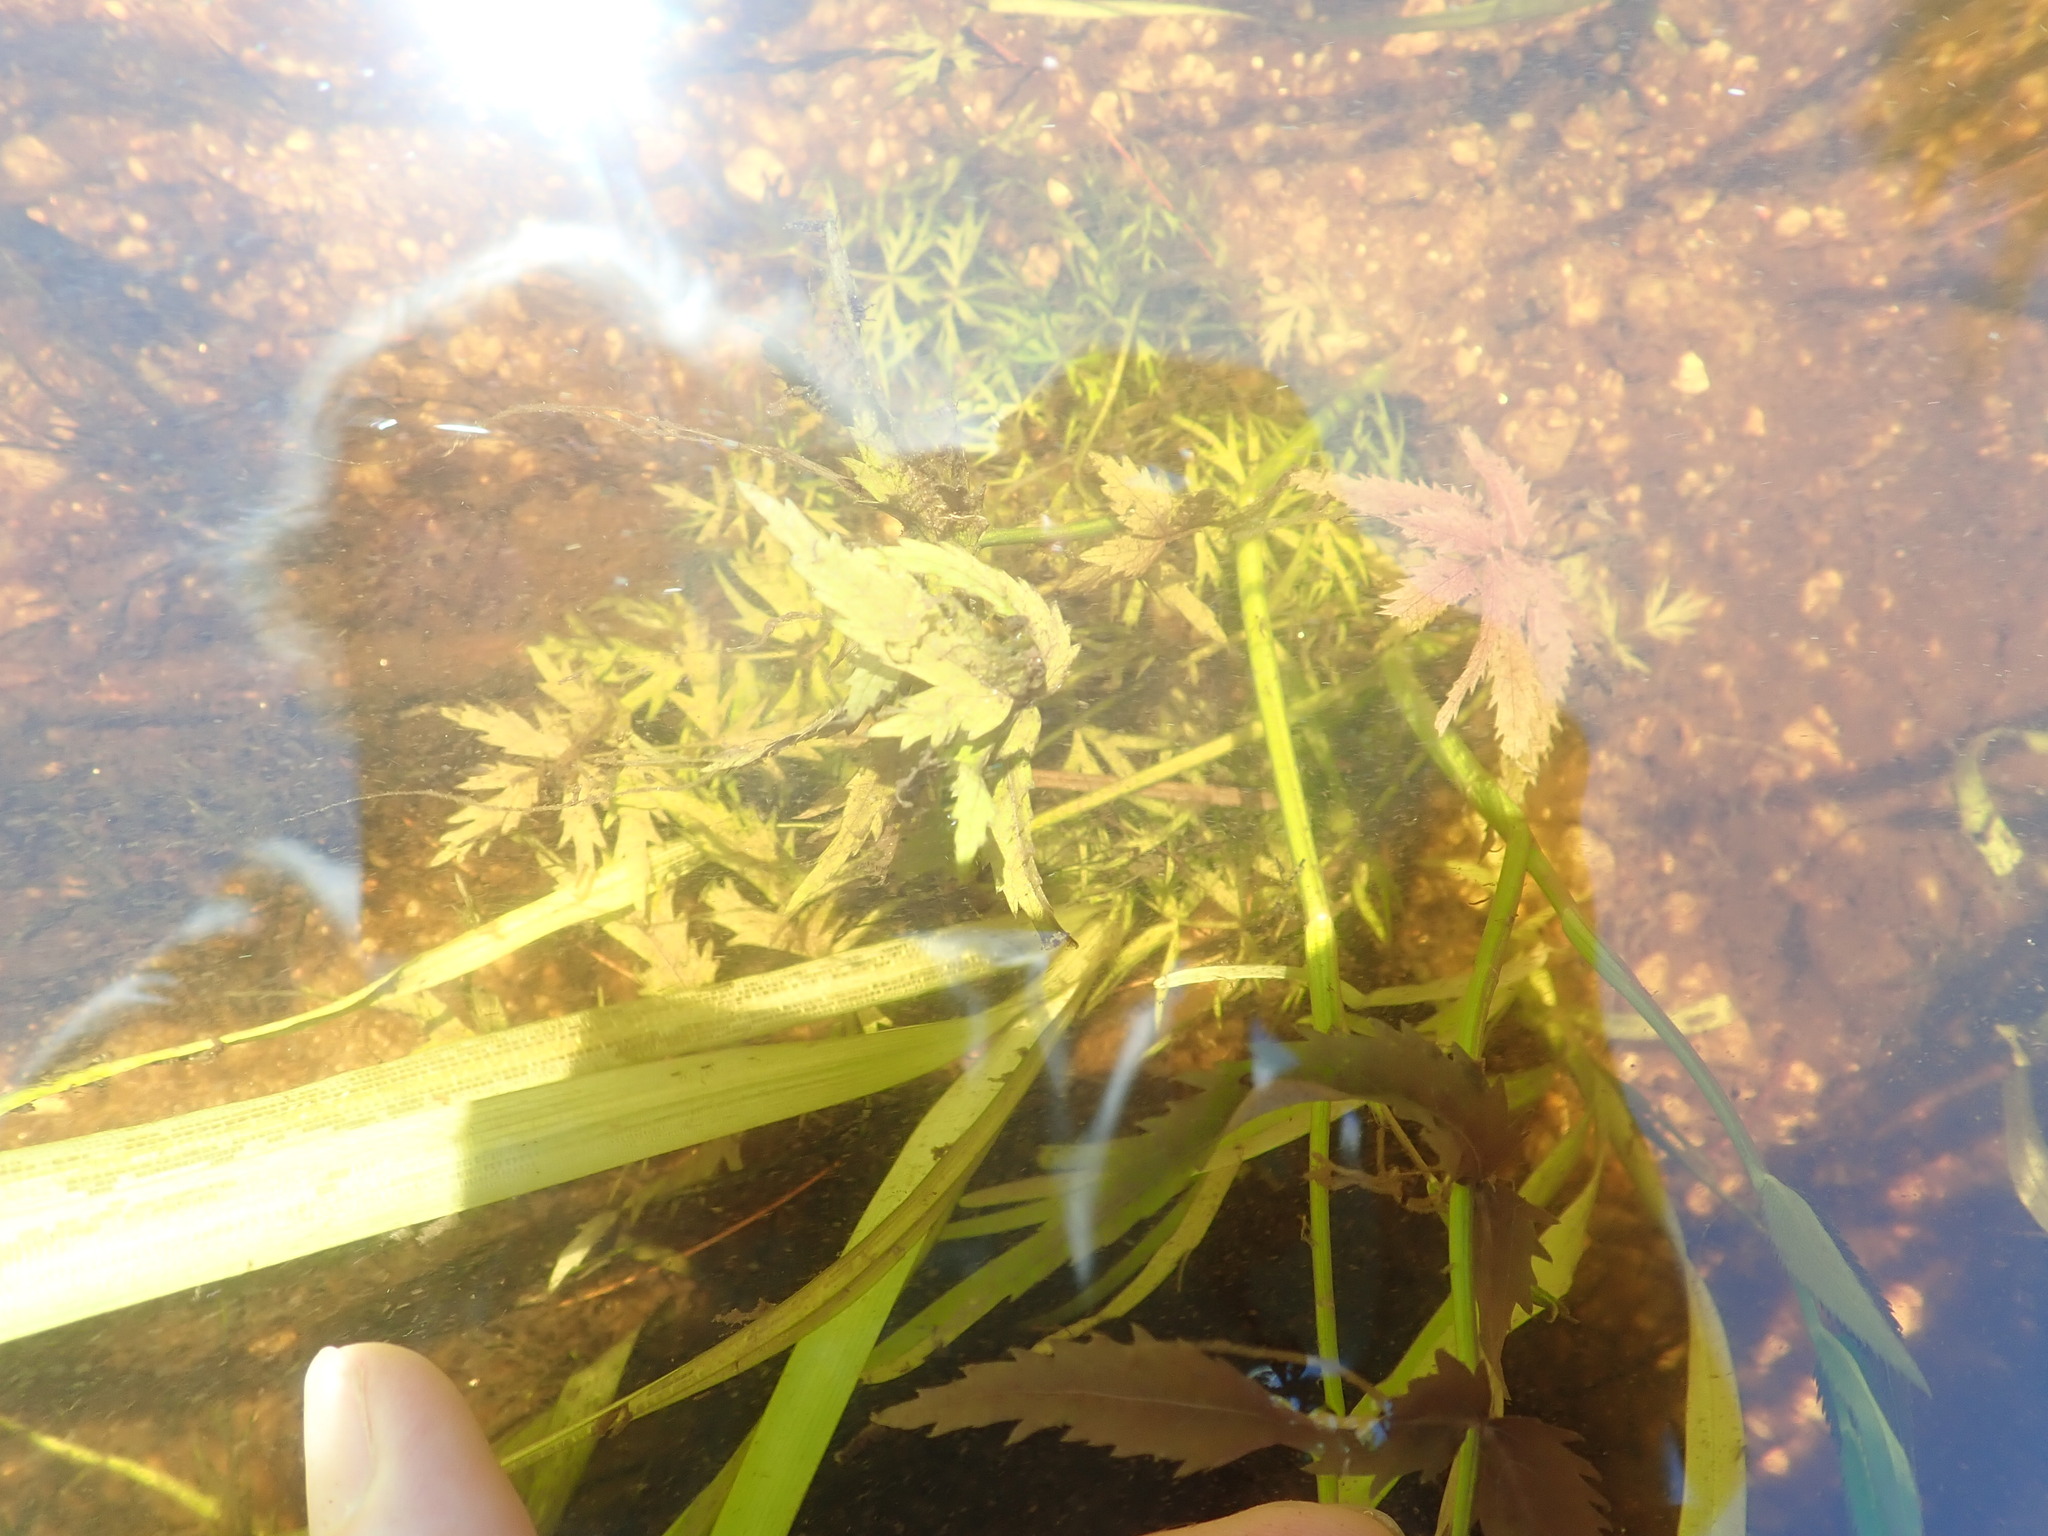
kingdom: Plantae
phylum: Tracheophyta
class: Magnoliopsida
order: Saxifragales
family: Haloragaceae
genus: Proserpinaca
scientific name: Proserpinaca palustris
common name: Marsh mermaidweed
